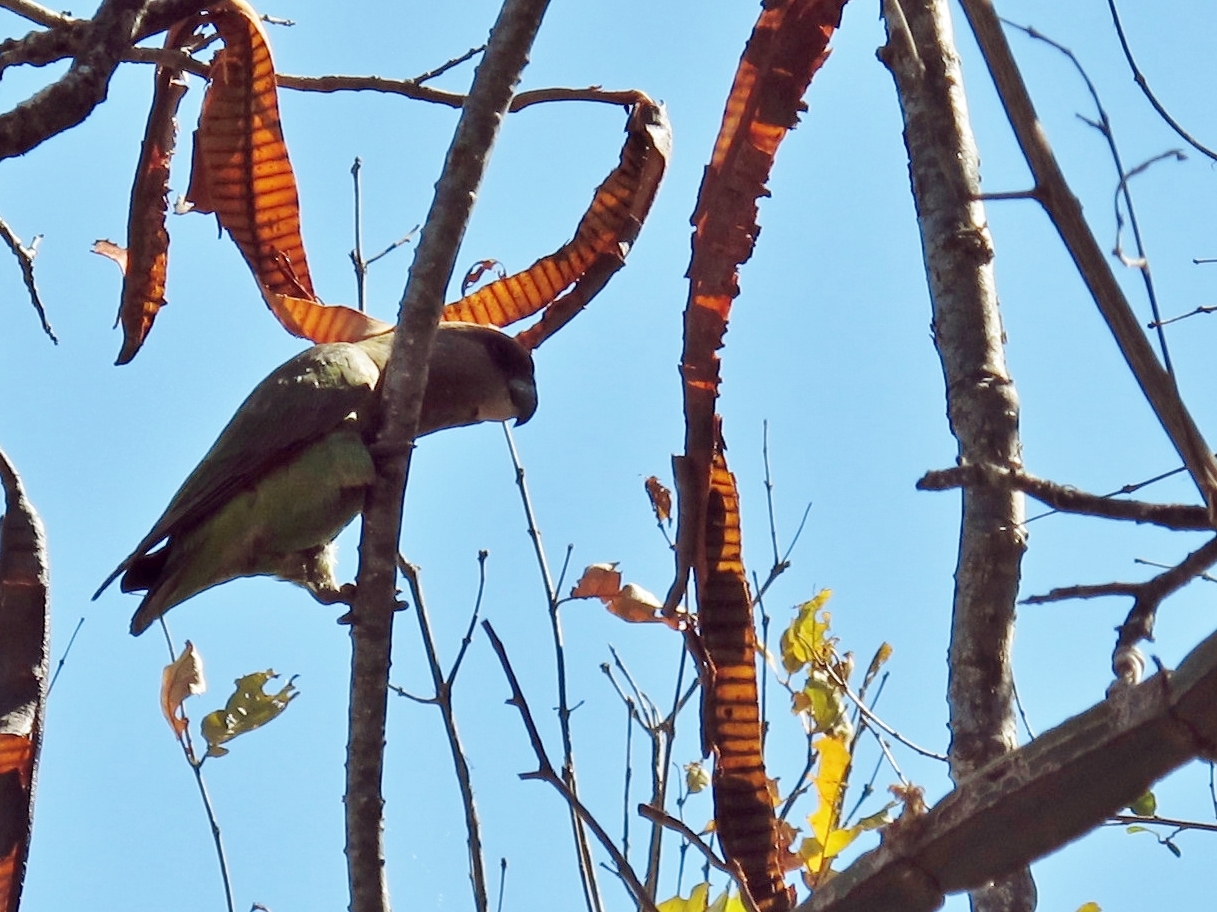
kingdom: Animalia
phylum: Chordata
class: Aves
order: Psittaciformes
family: Psittacidae
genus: Poicephalus
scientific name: Poicephalus cryptoxanthus
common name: Brown-headed parrot
